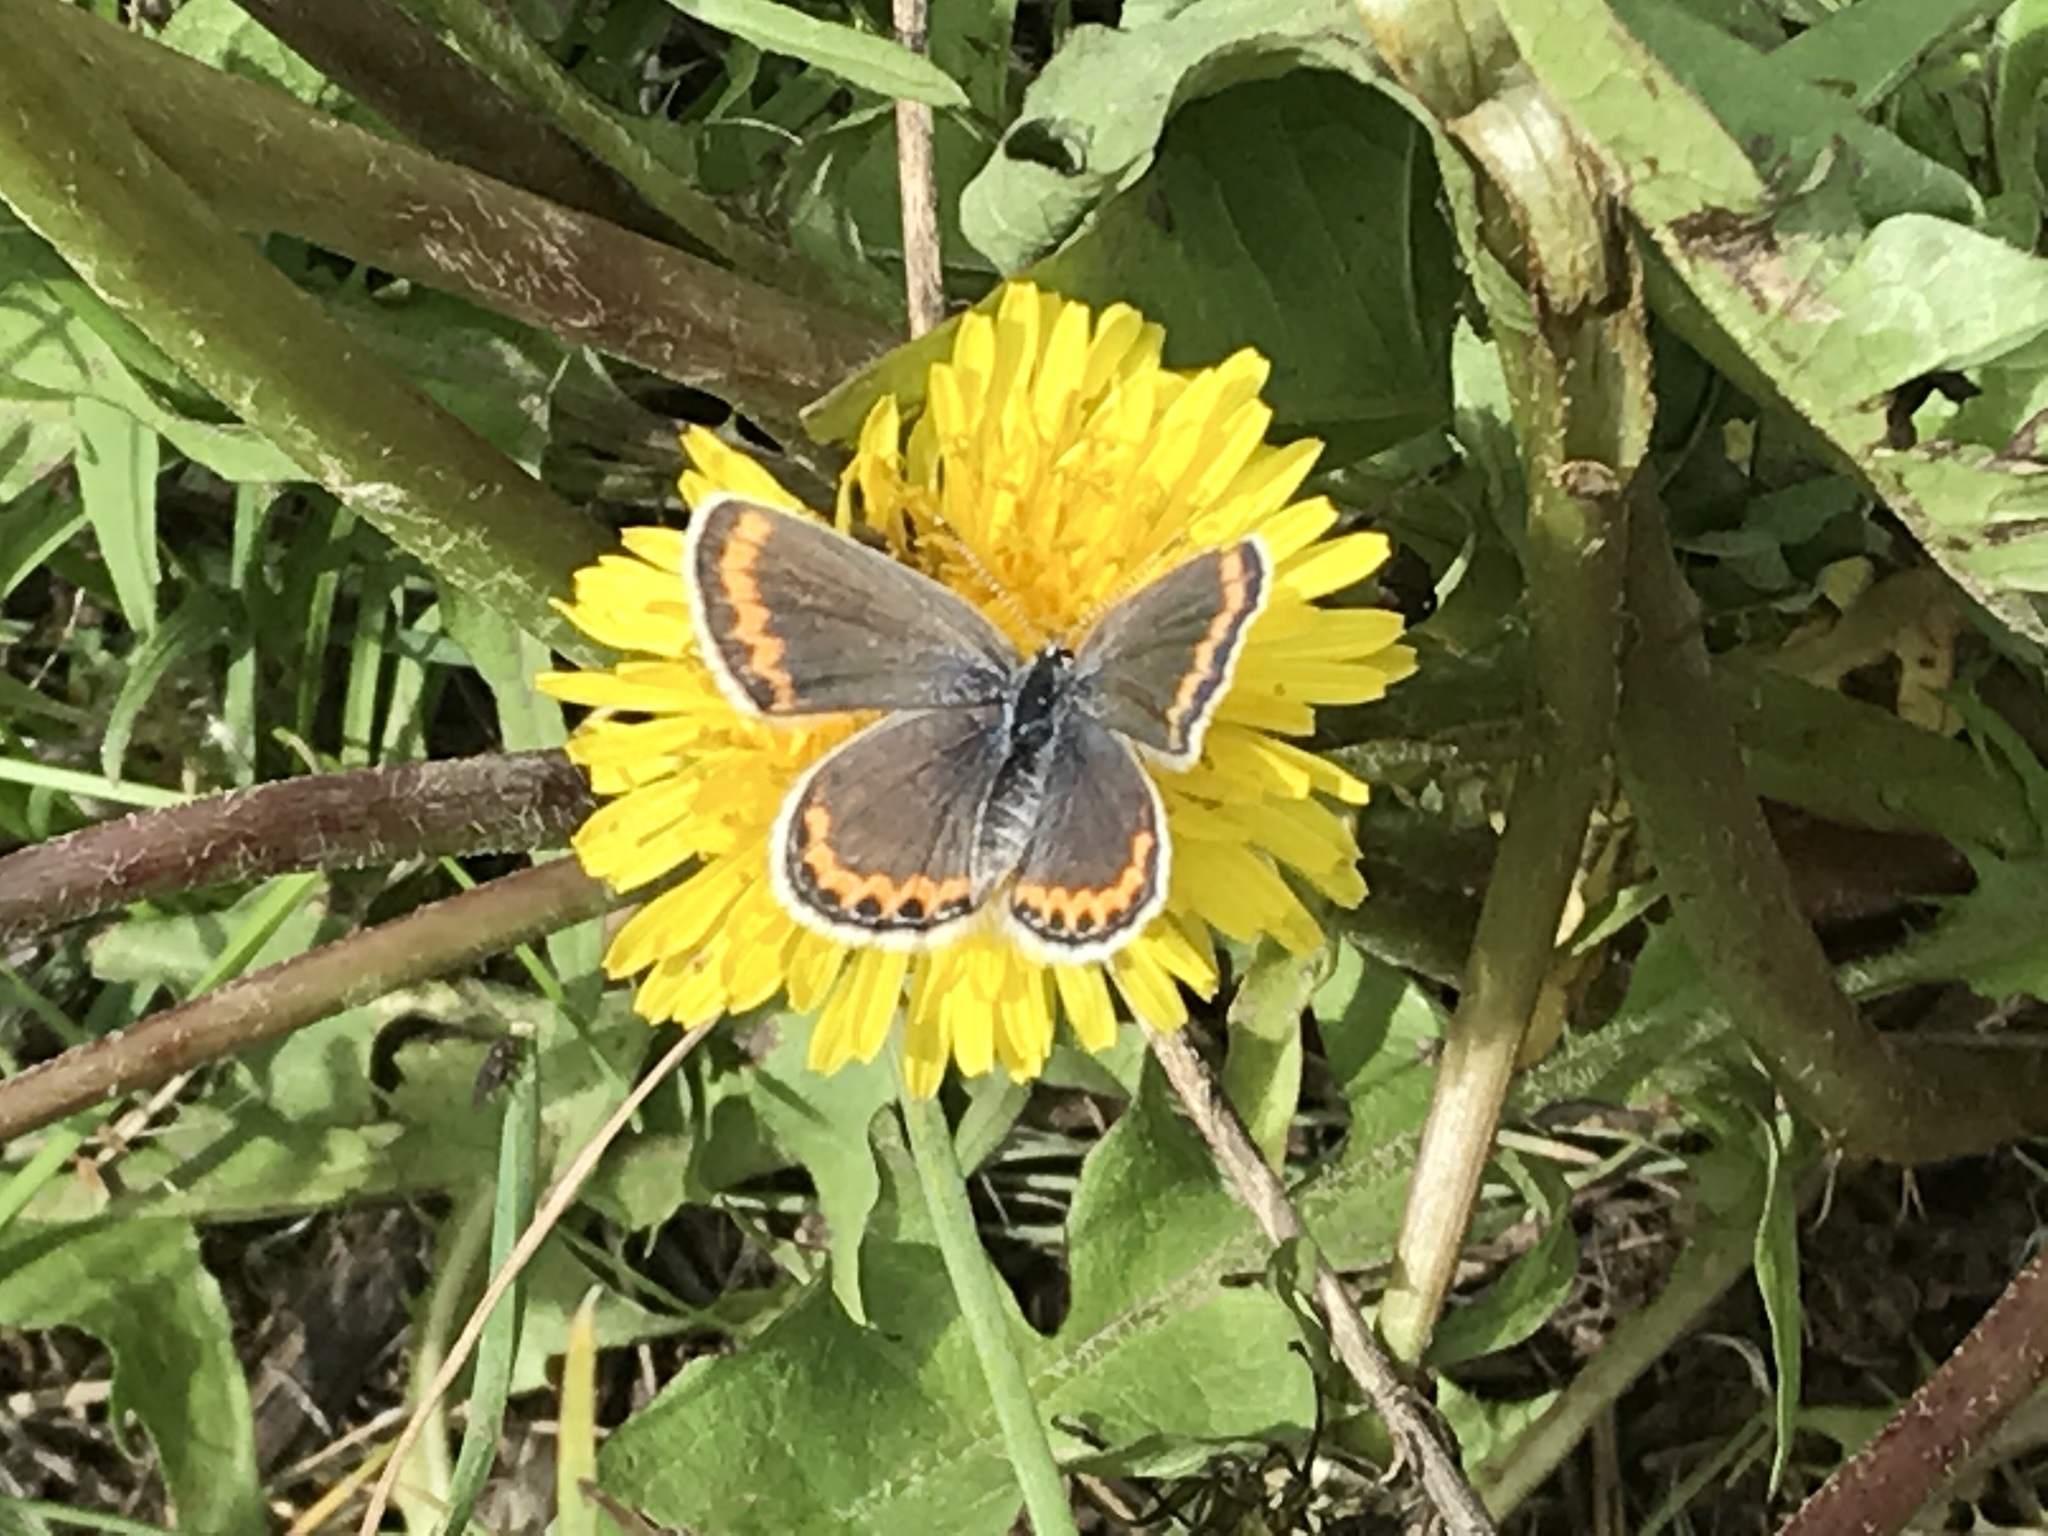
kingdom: Animalia
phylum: Arthropoda
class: Insecta
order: Lepidoptera
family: Lycaenidae
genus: Lycaeides
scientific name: Lycaeides melissa
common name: Melissa blue
